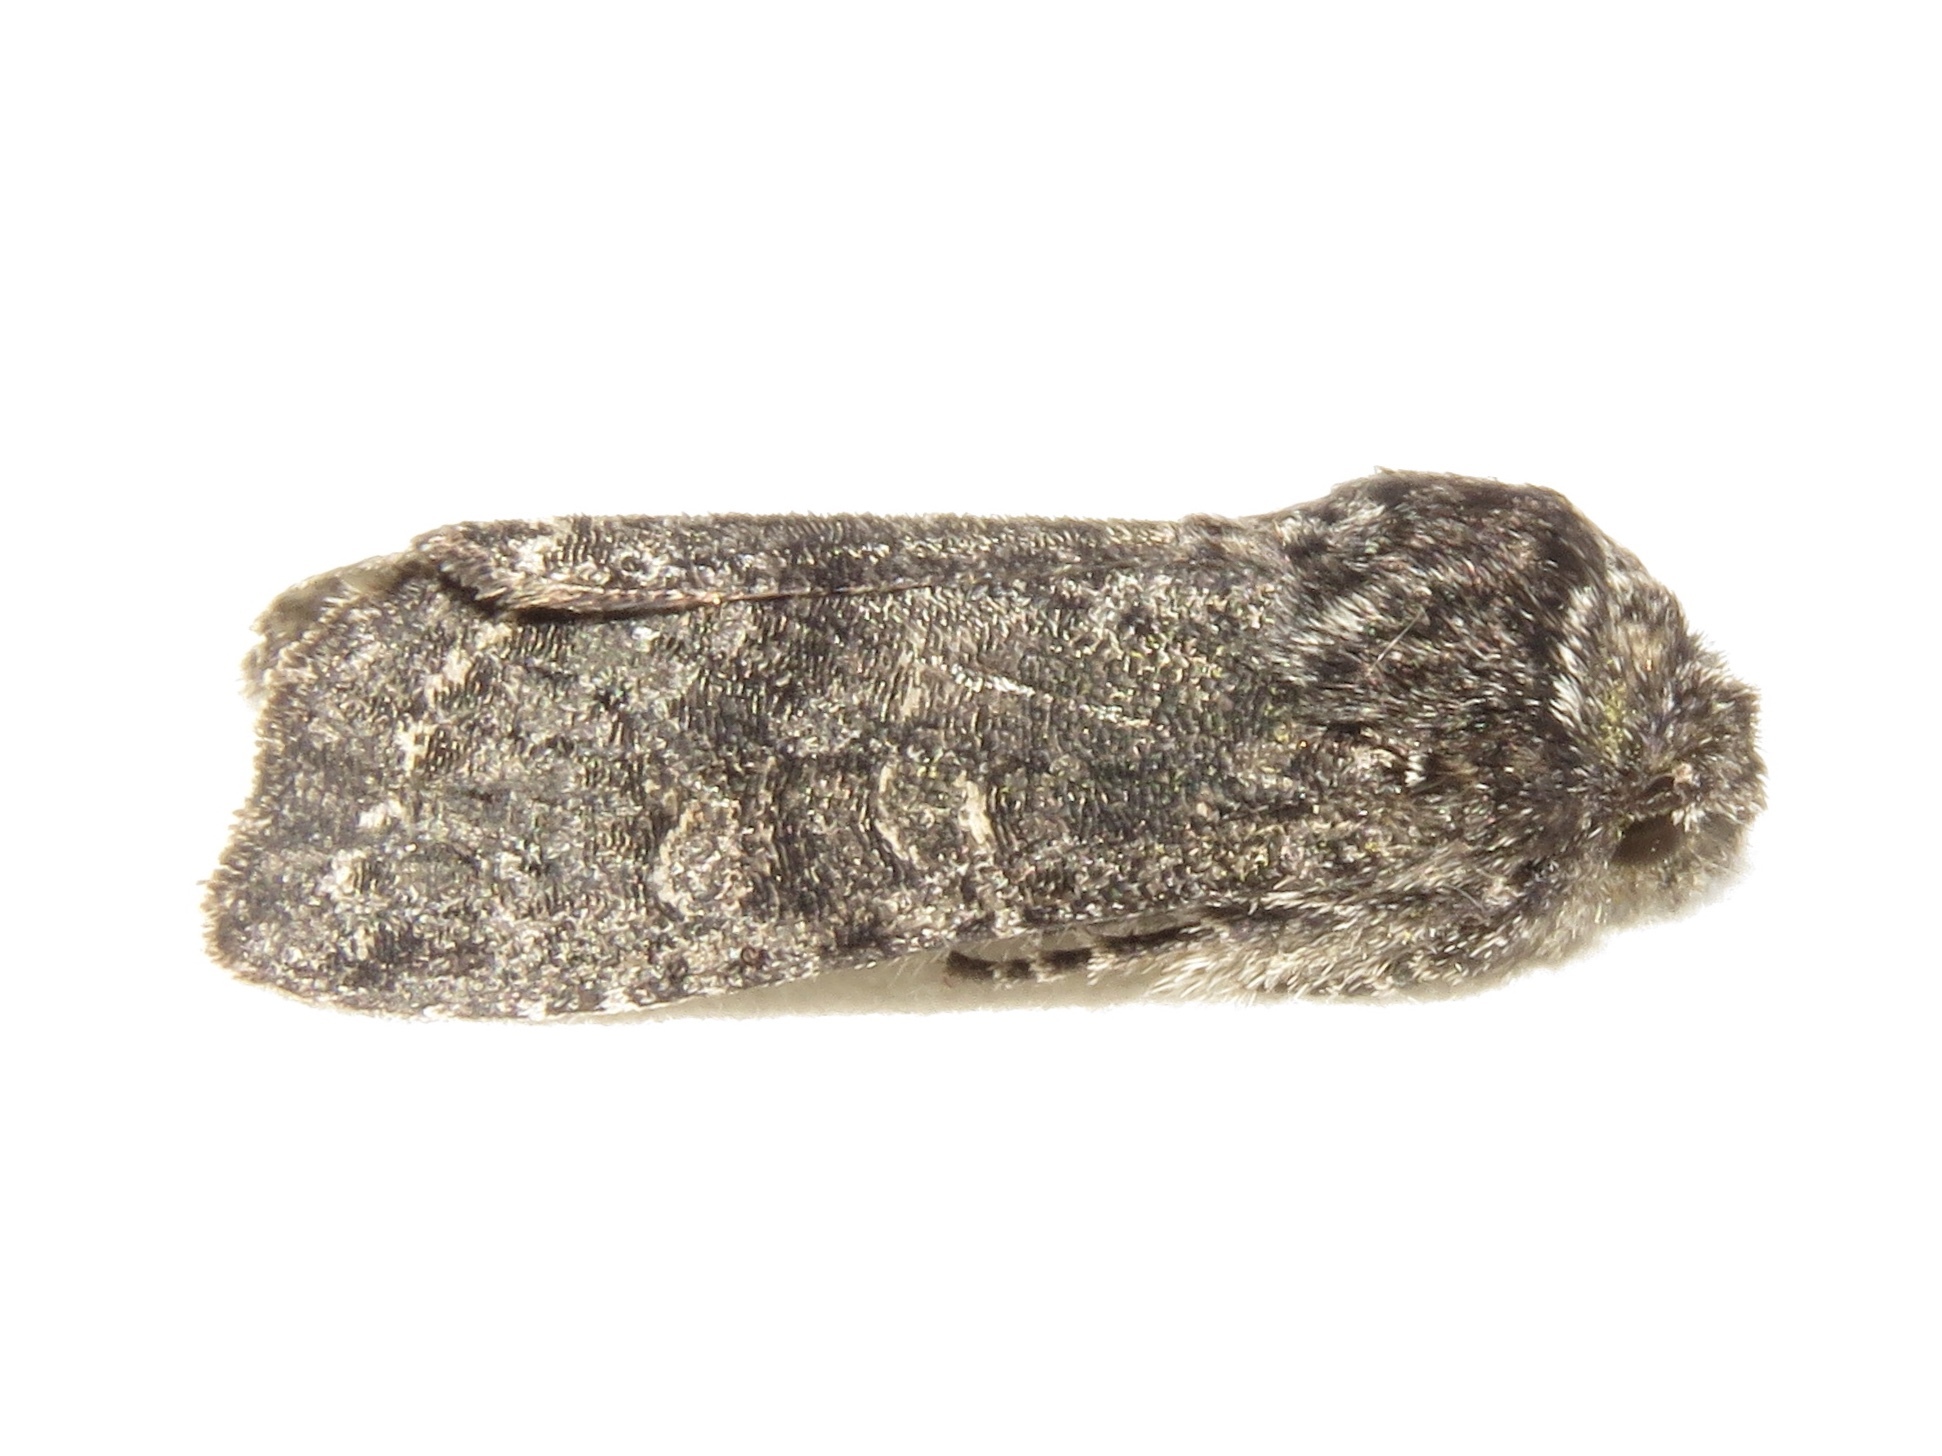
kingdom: Animalia
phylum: Arthropoda
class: Insecta
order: Lepidoptera
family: Noctuidae
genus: Egira
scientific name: Egira dolosa
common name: Lined black aspen cat.
